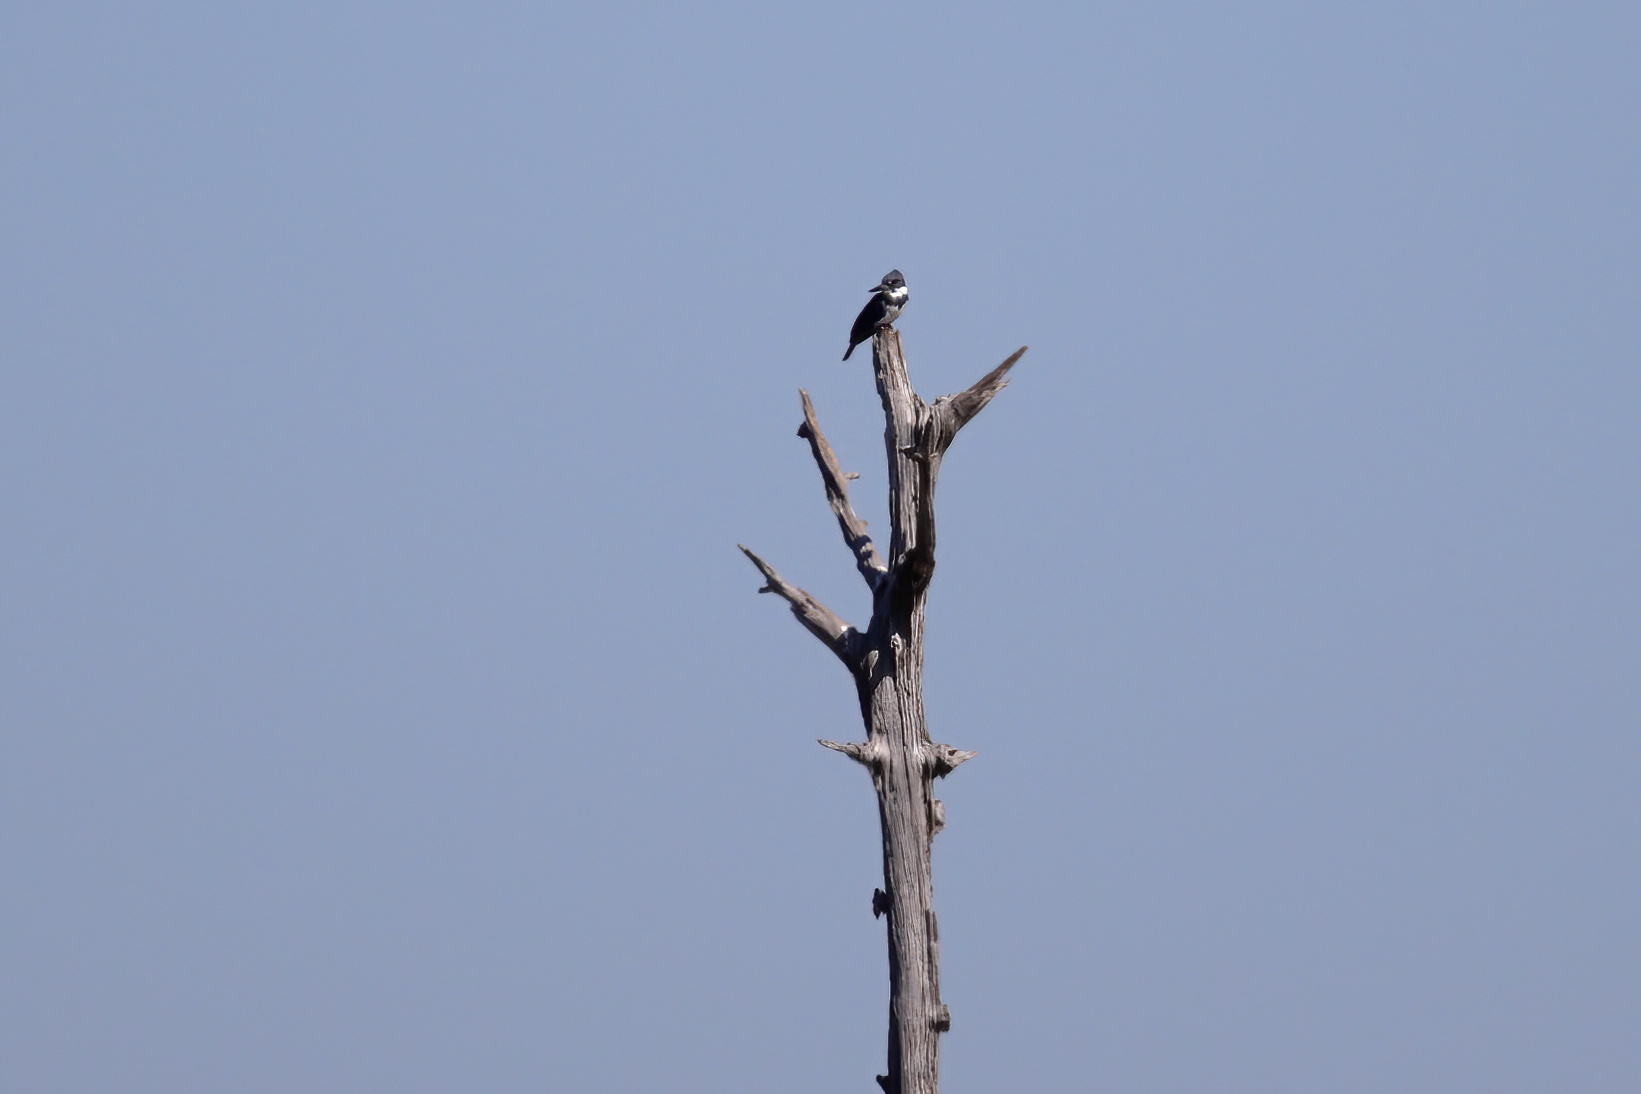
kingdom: Animalia
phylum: Chordata
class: Aves
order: Coraciiformes
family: Alcedinidae
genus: Megaceryle
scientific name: Megaceryle alcyon
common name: Belted kingfisher
